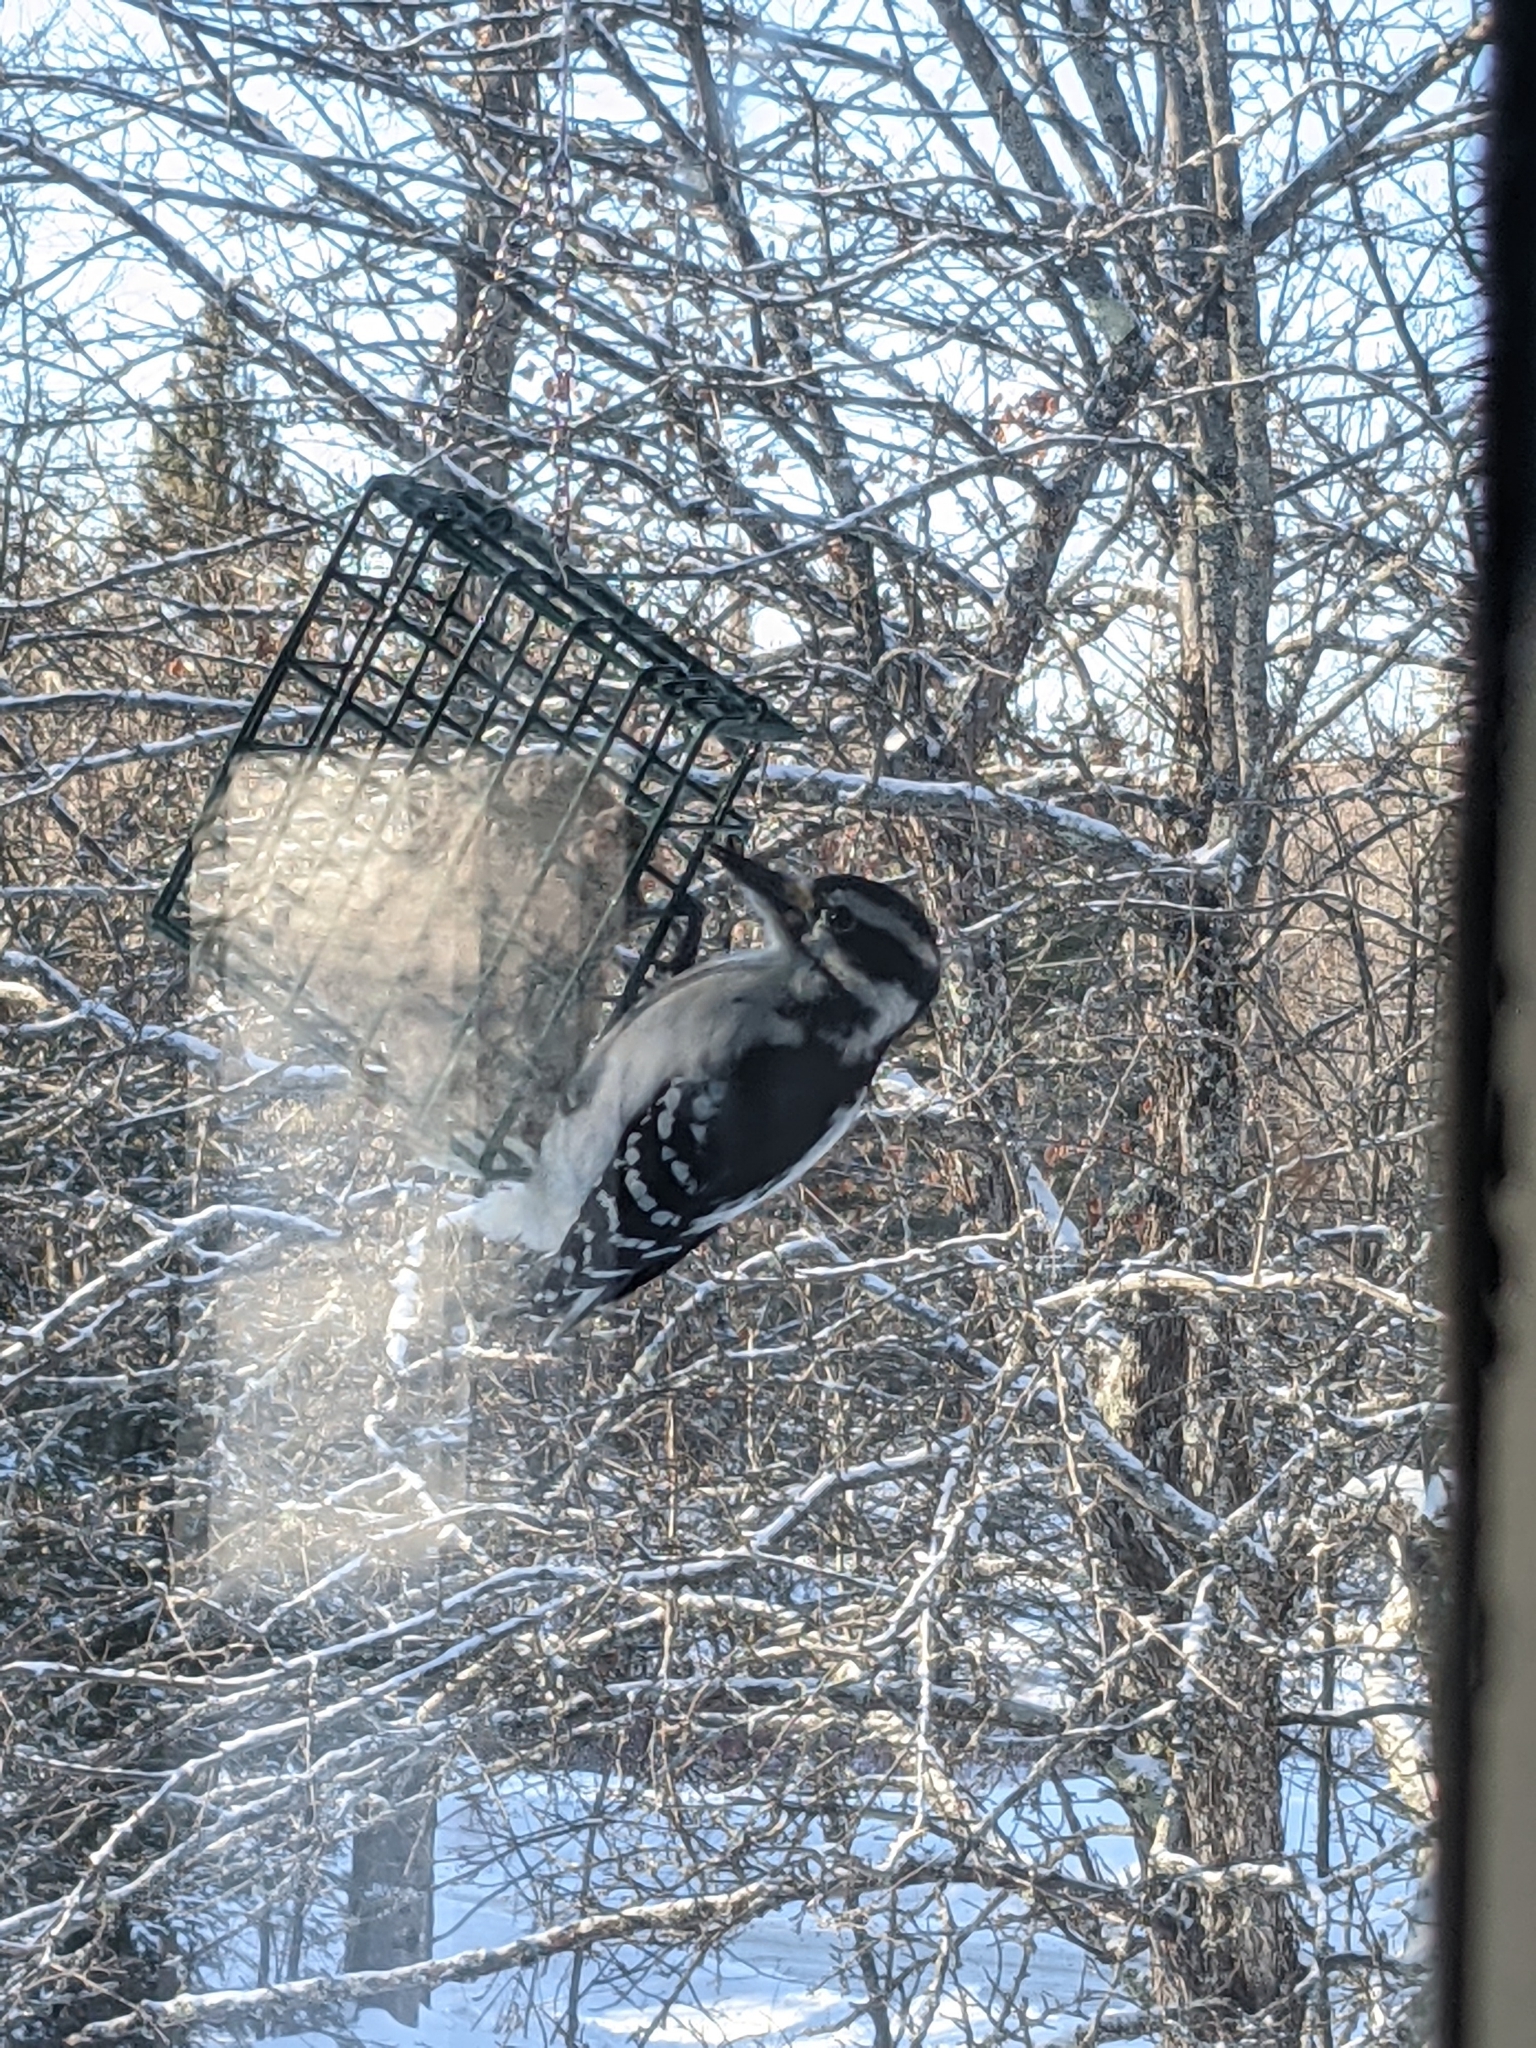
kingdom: Animalia
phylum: Chordata
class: Aves
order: Piciformes
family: Picidae
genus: Leuconotopicus
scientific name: Leuconotopicus villosus
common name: Hairy woodpecker
